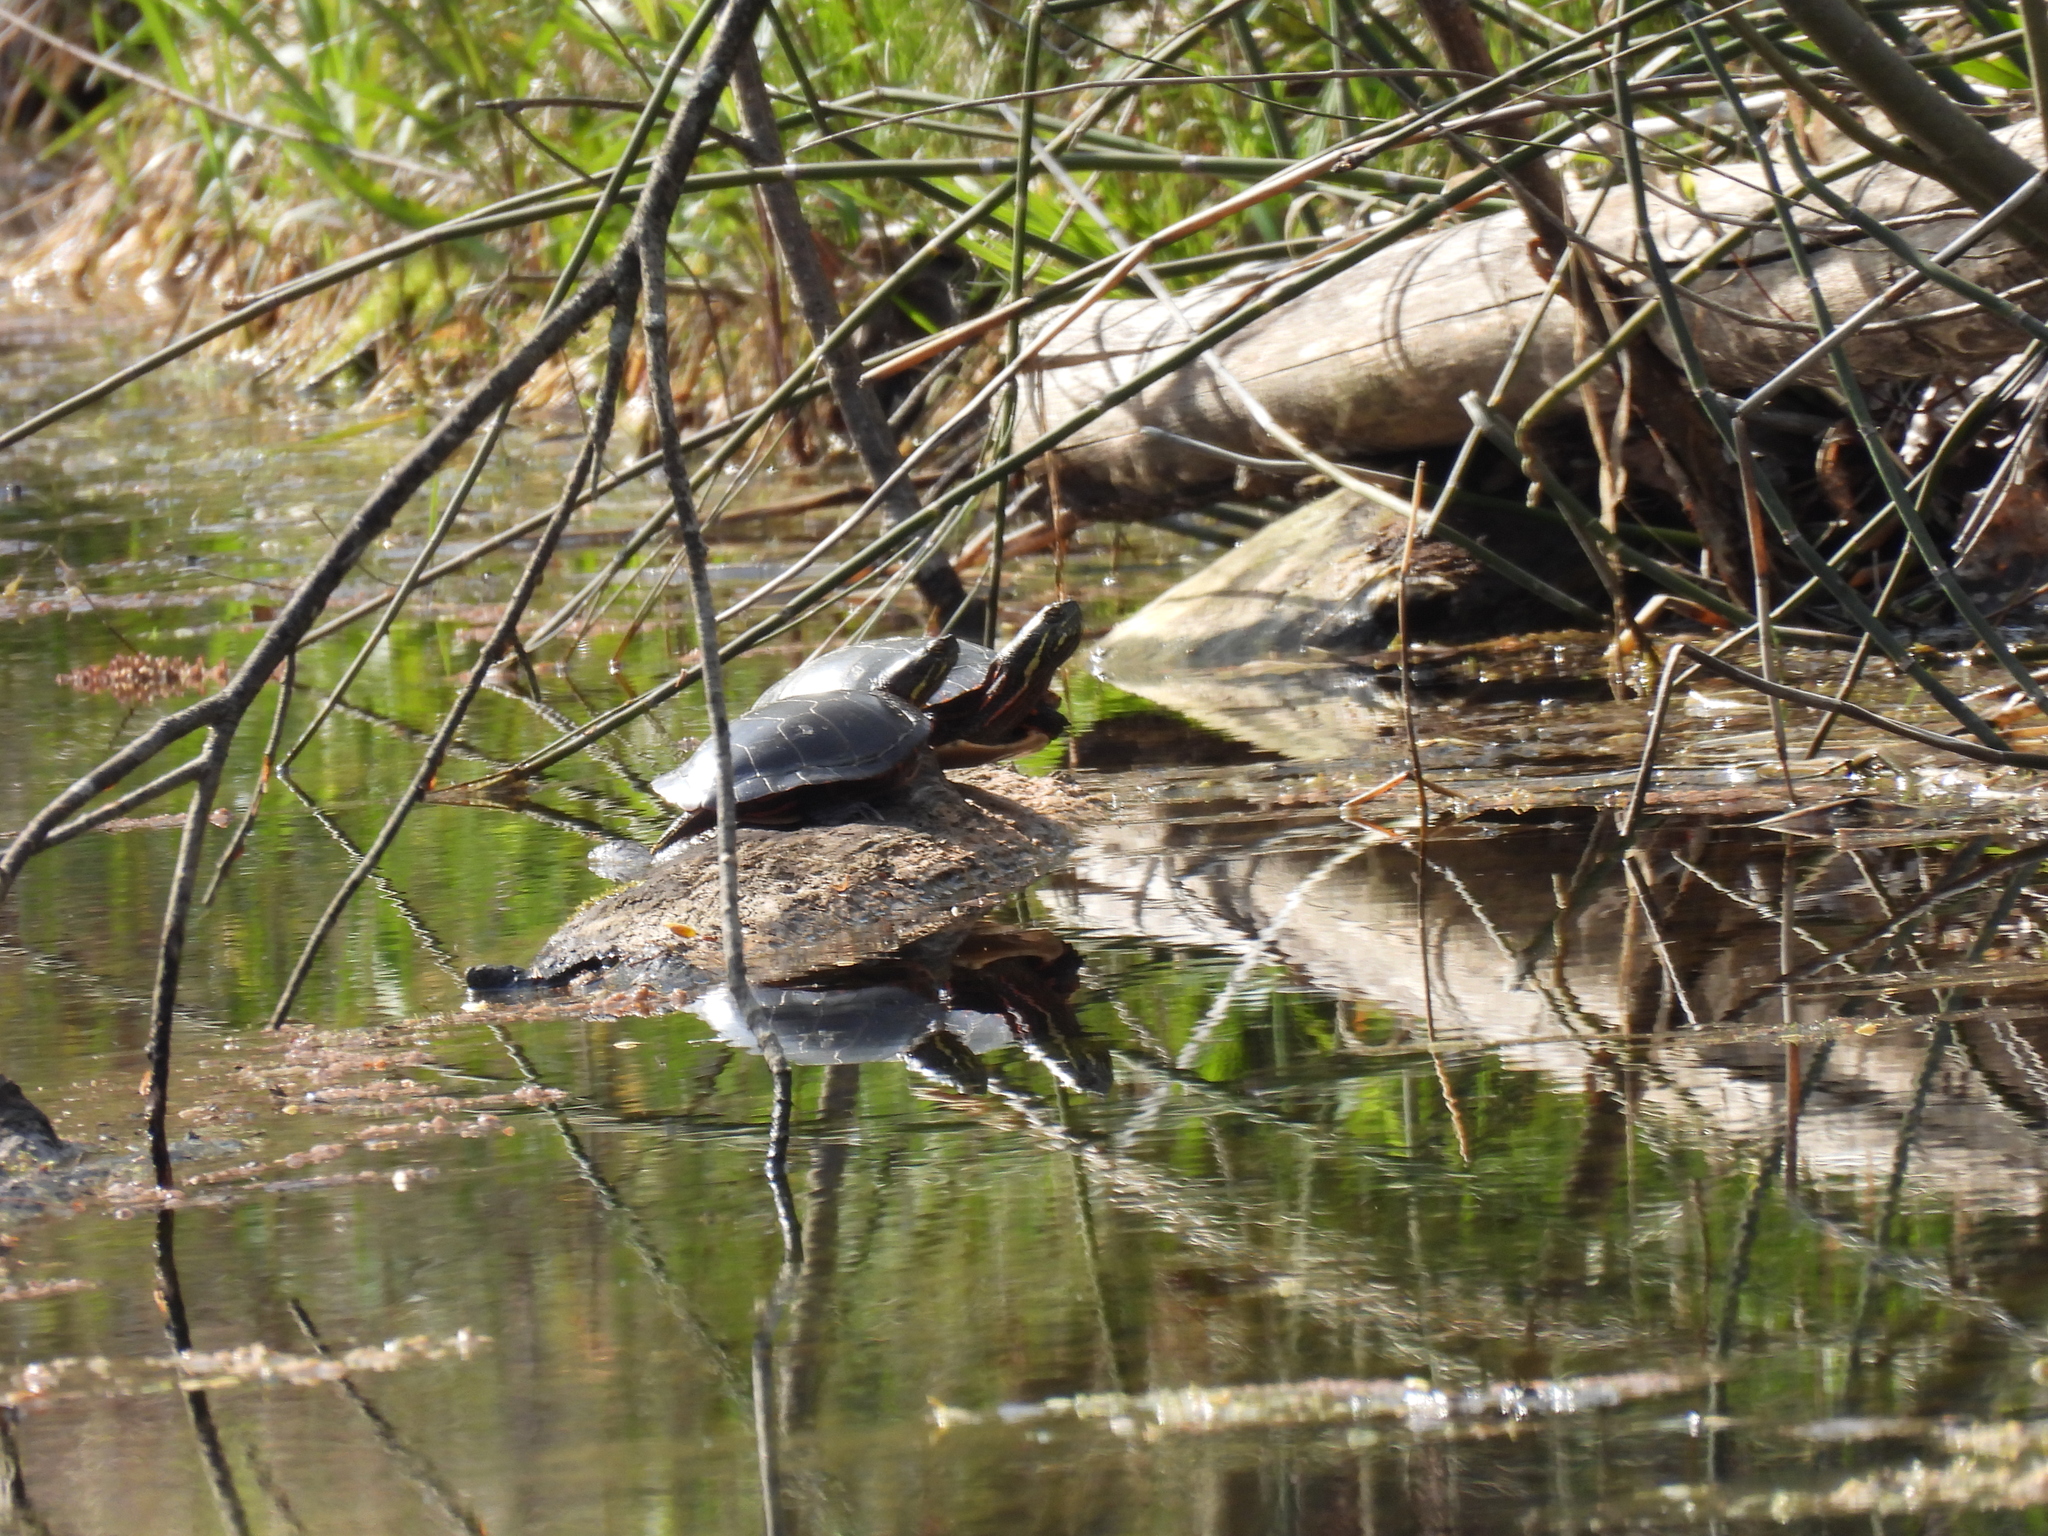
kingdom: Animalia
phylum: Chordata
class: Testudines
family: Emydidae
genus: Chrysemys
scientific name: Chrysemys picta
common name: Painted turtle
